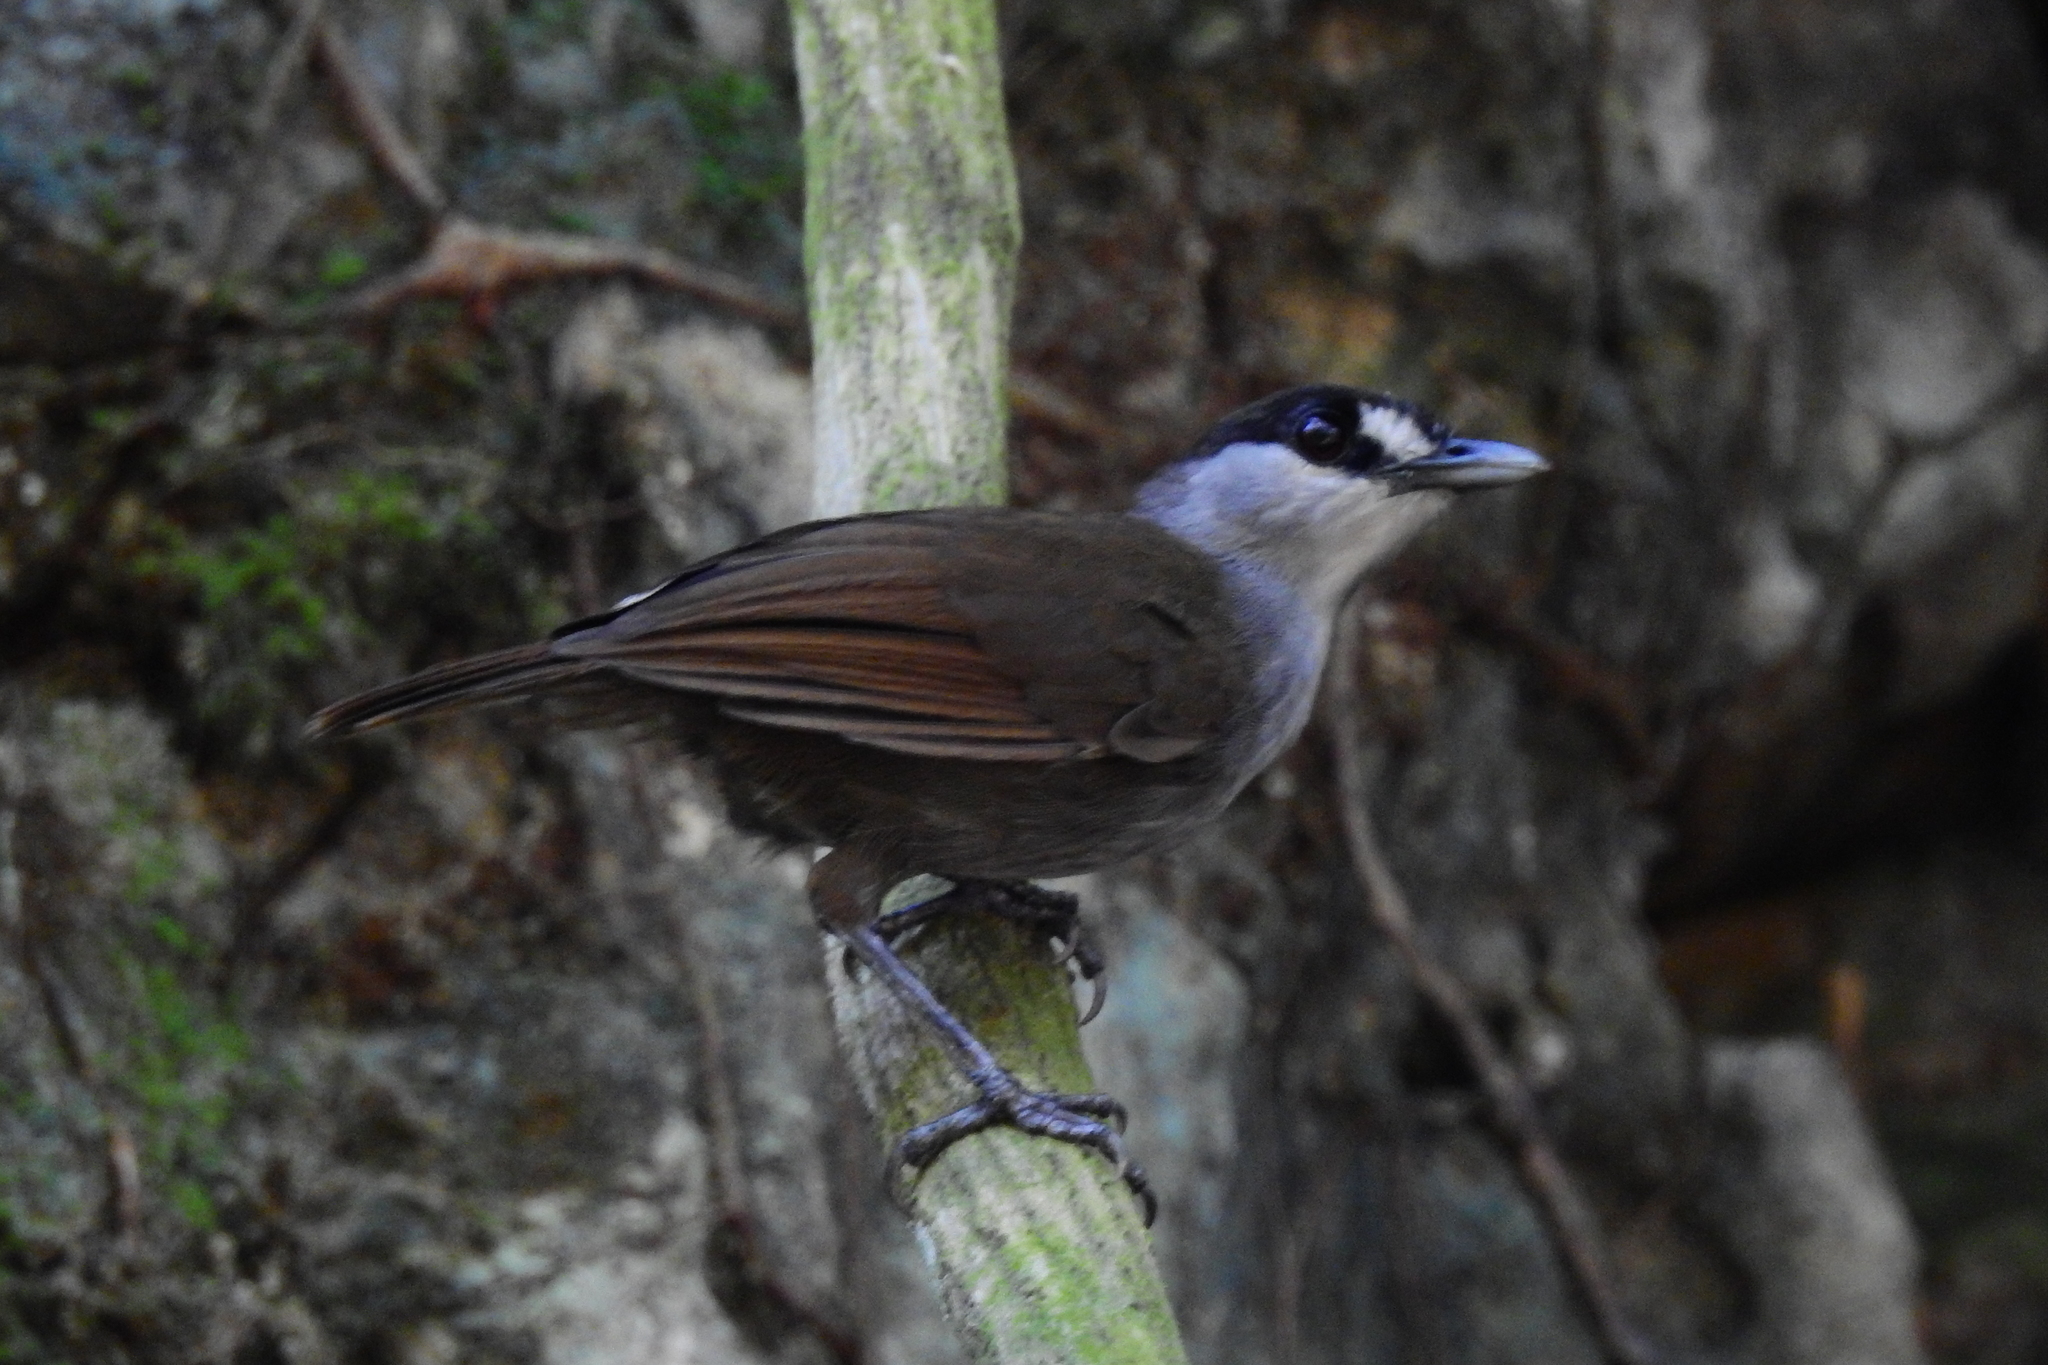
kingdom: Animalia
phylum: Chordata
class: Aves
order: Passeriformes
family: Pellorneidae
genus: Malacocincla
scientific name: Malacocincla perspicillata
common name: Black-browed babbler
